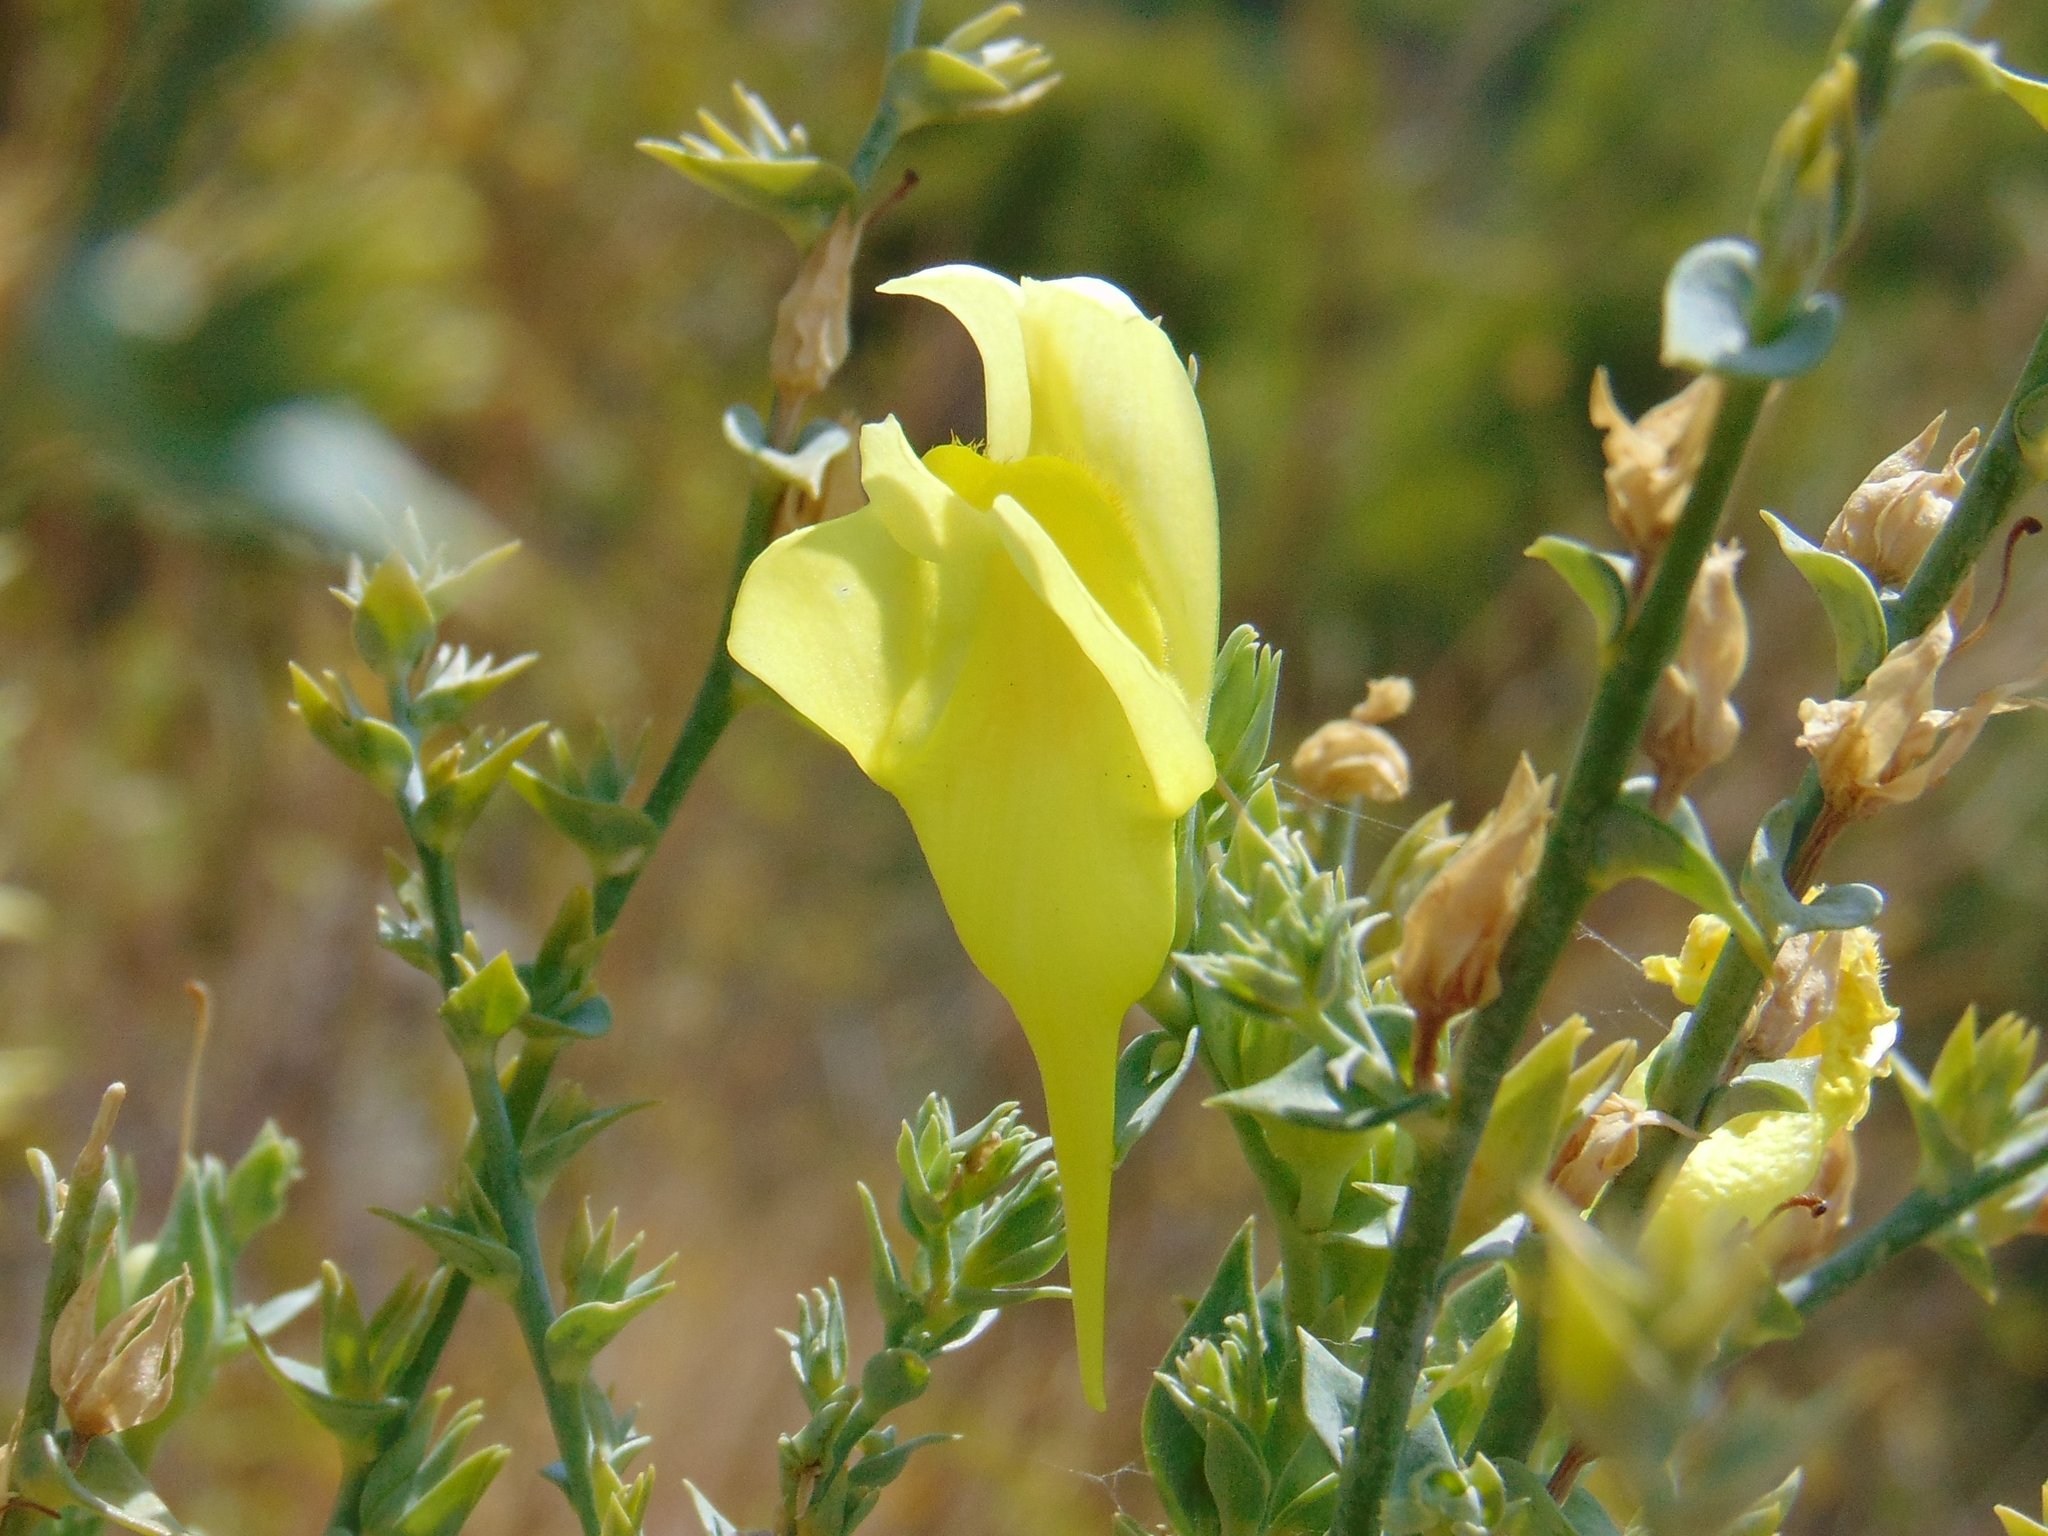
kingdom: Plantae
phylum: Tracheophyta
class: Magnoliopsida
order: Lamiales
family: Plantaginaceae
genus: Linaria
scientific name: Linaria dalmatica
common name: Dalmatian toadflax
